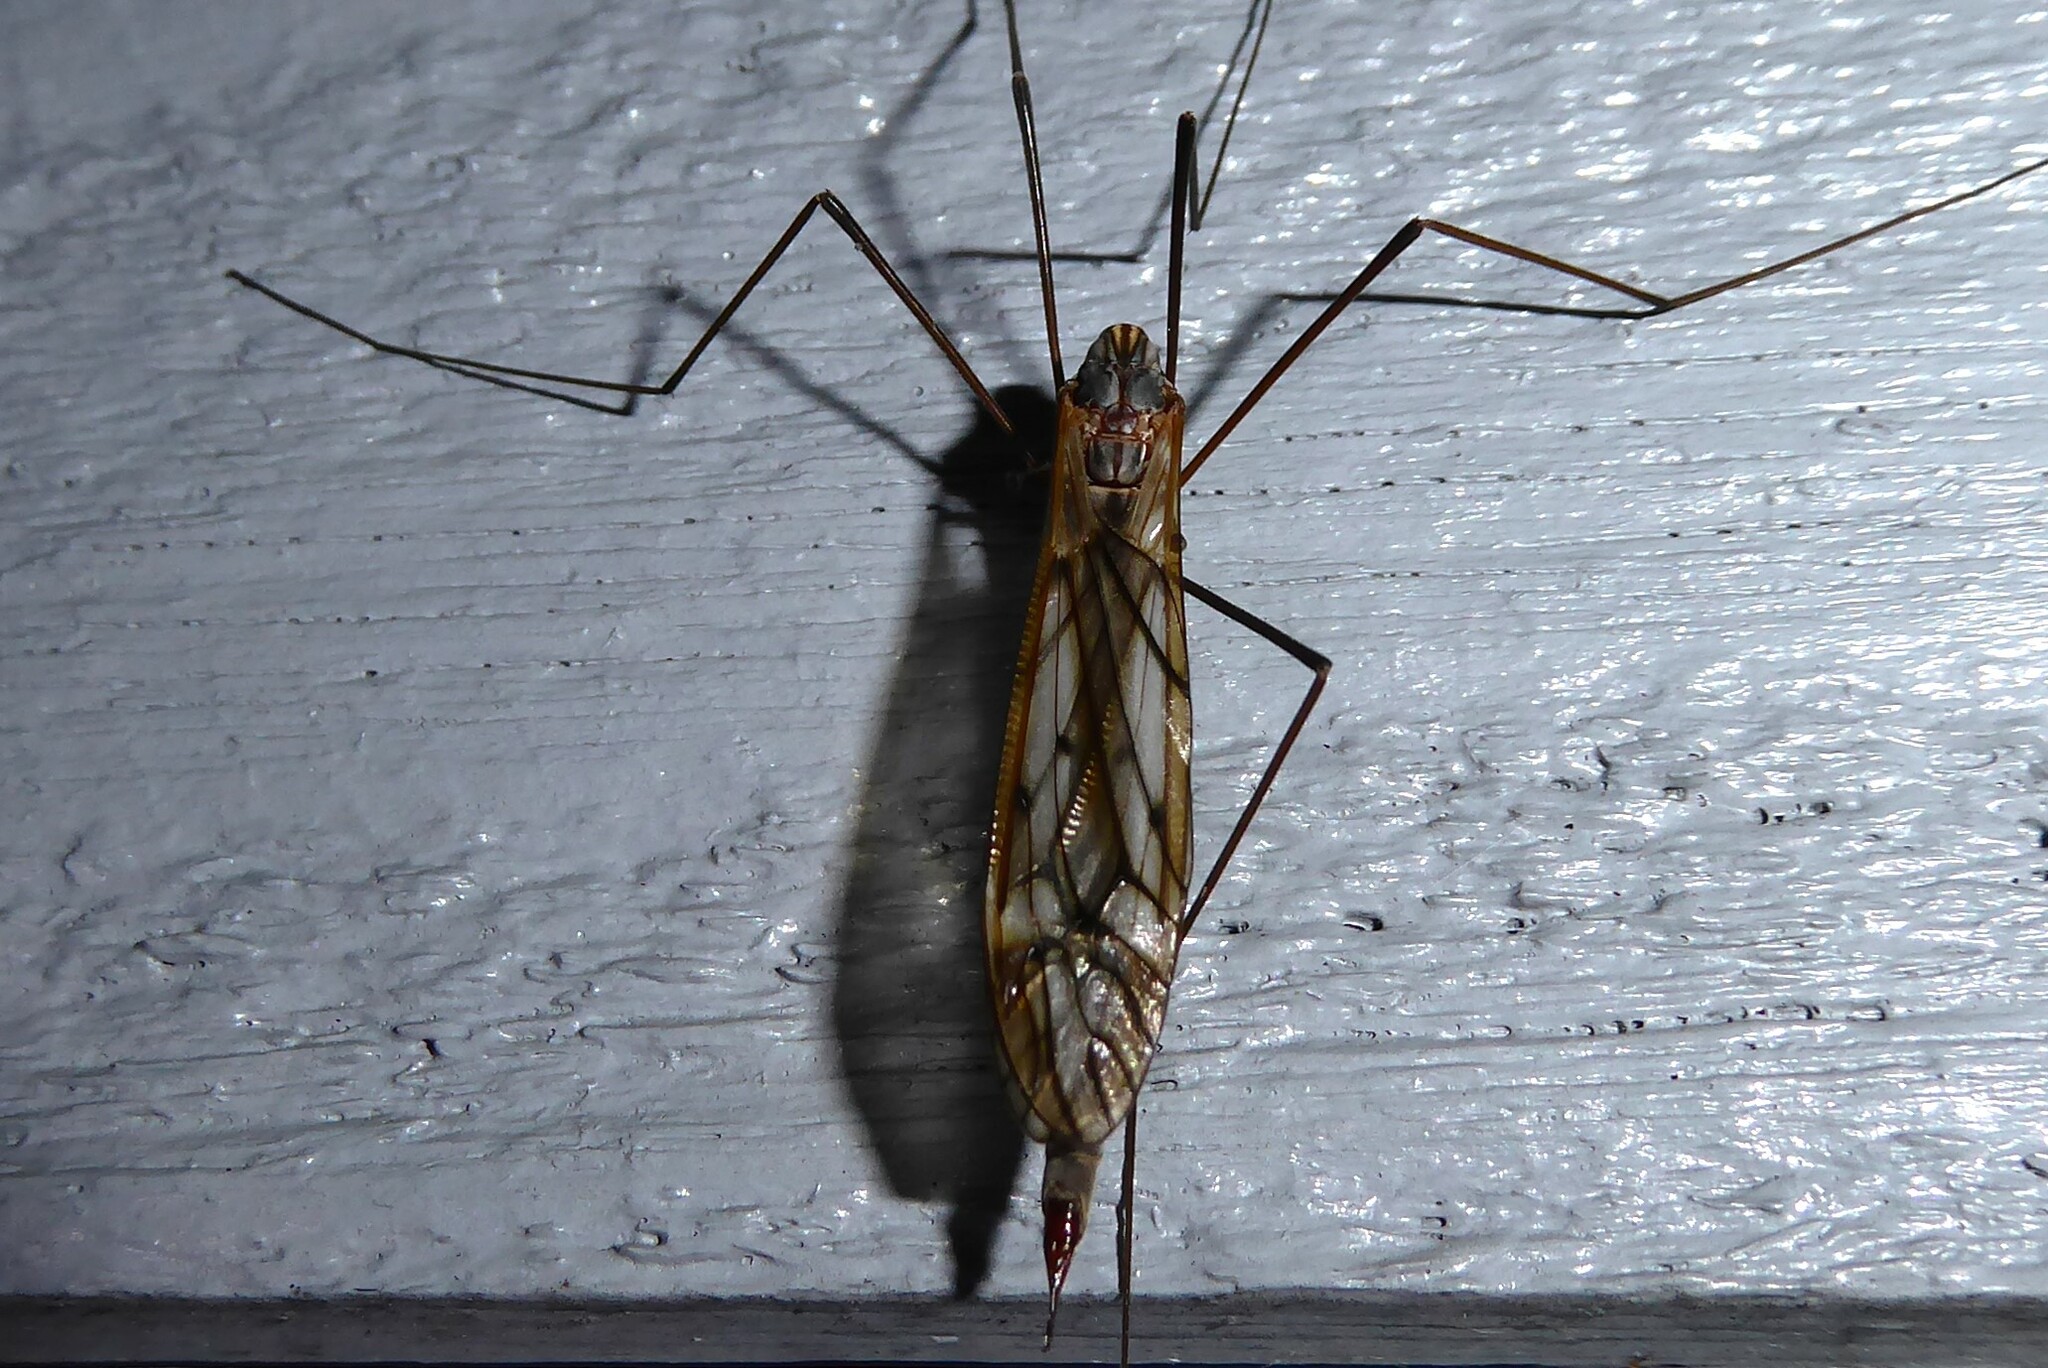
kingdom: Animalia
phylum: Arthropoda
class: Insecta
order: Diptera
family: Tipulidae
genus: Zelandotipula
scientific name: Zelandotipula novarae
